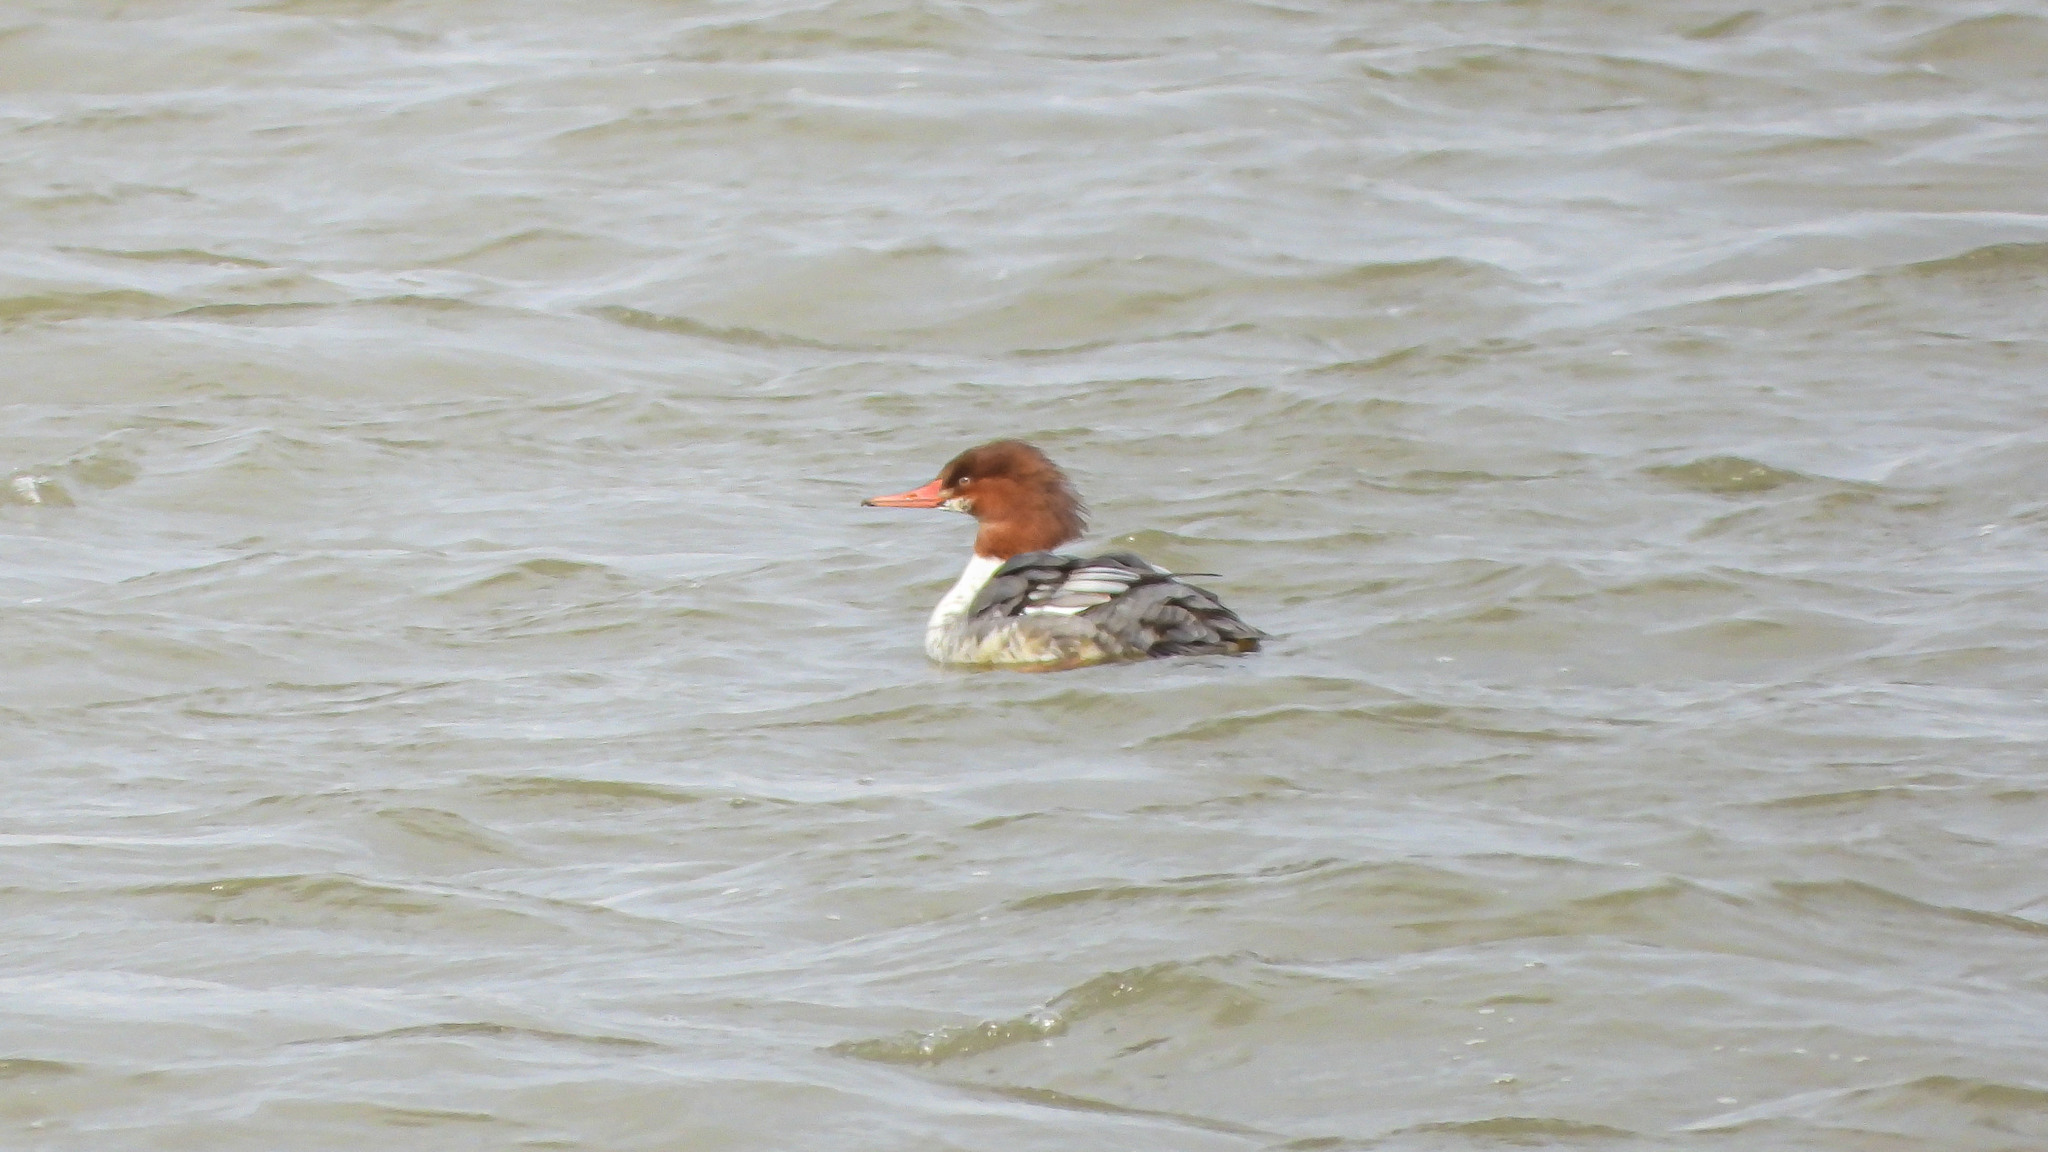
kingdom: Animalia
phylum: Chordata
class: Aves
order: Anseriformes
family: Anatidae
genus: Mergus
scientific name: Mergus merganser
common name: Common merganser
